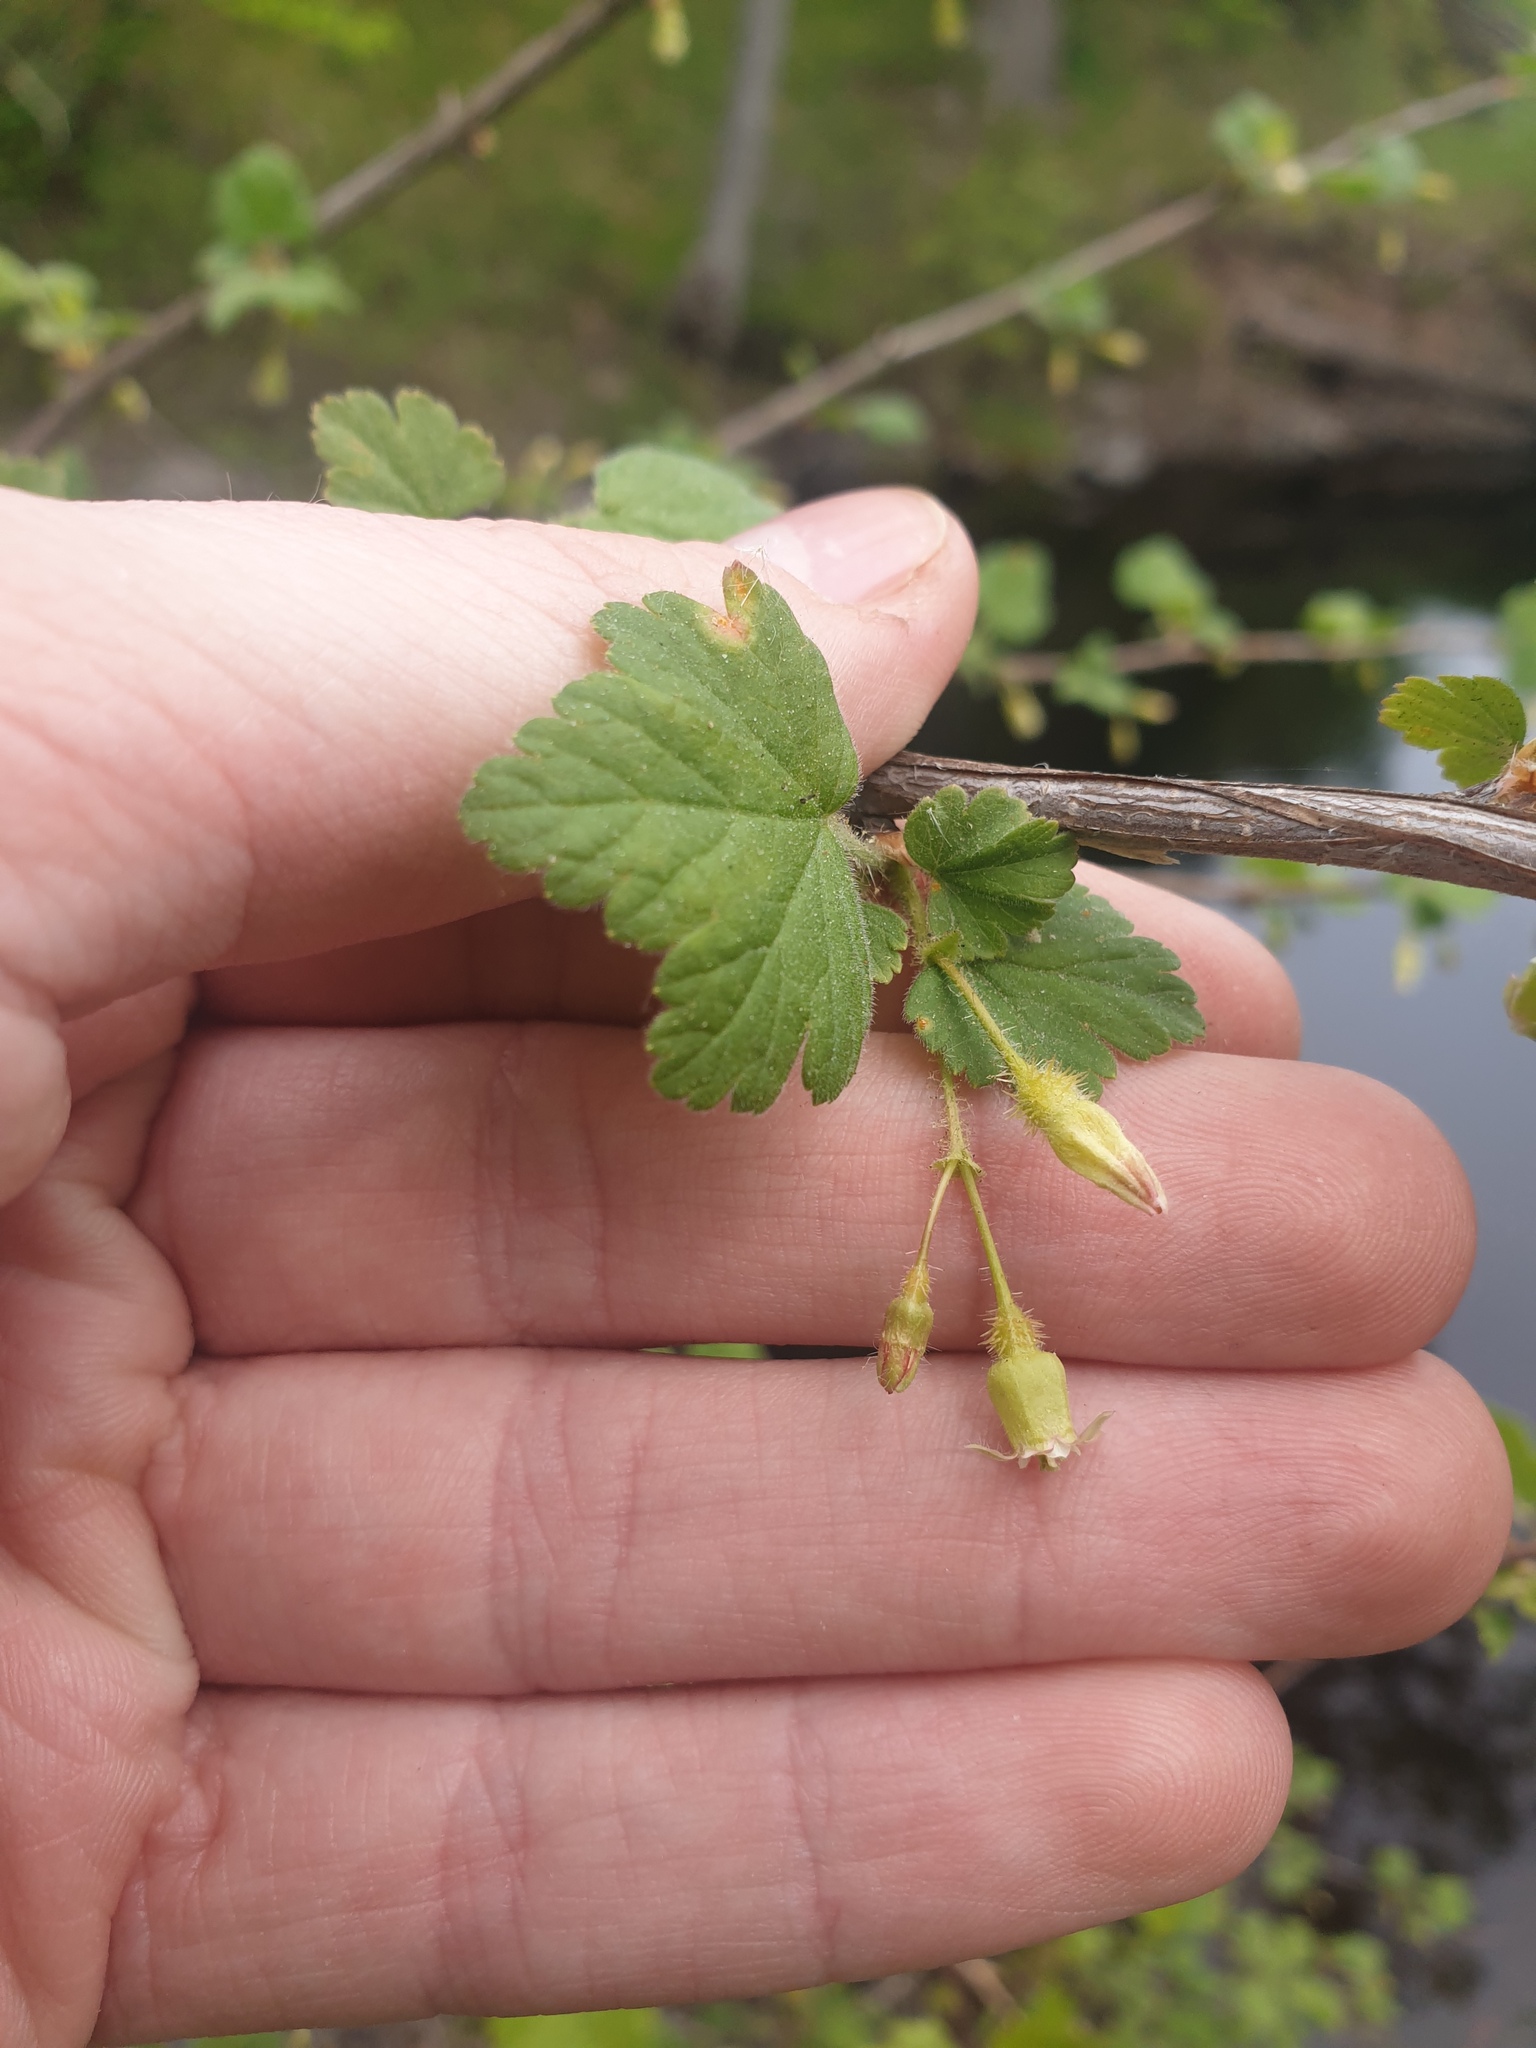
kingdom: Plantae
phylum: Tracheophyta
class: Magnoliopsida
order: Saxifragales
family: Grossulariaceae
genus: Ribes
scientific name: Ribes cynosbati
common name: American gooseberry
